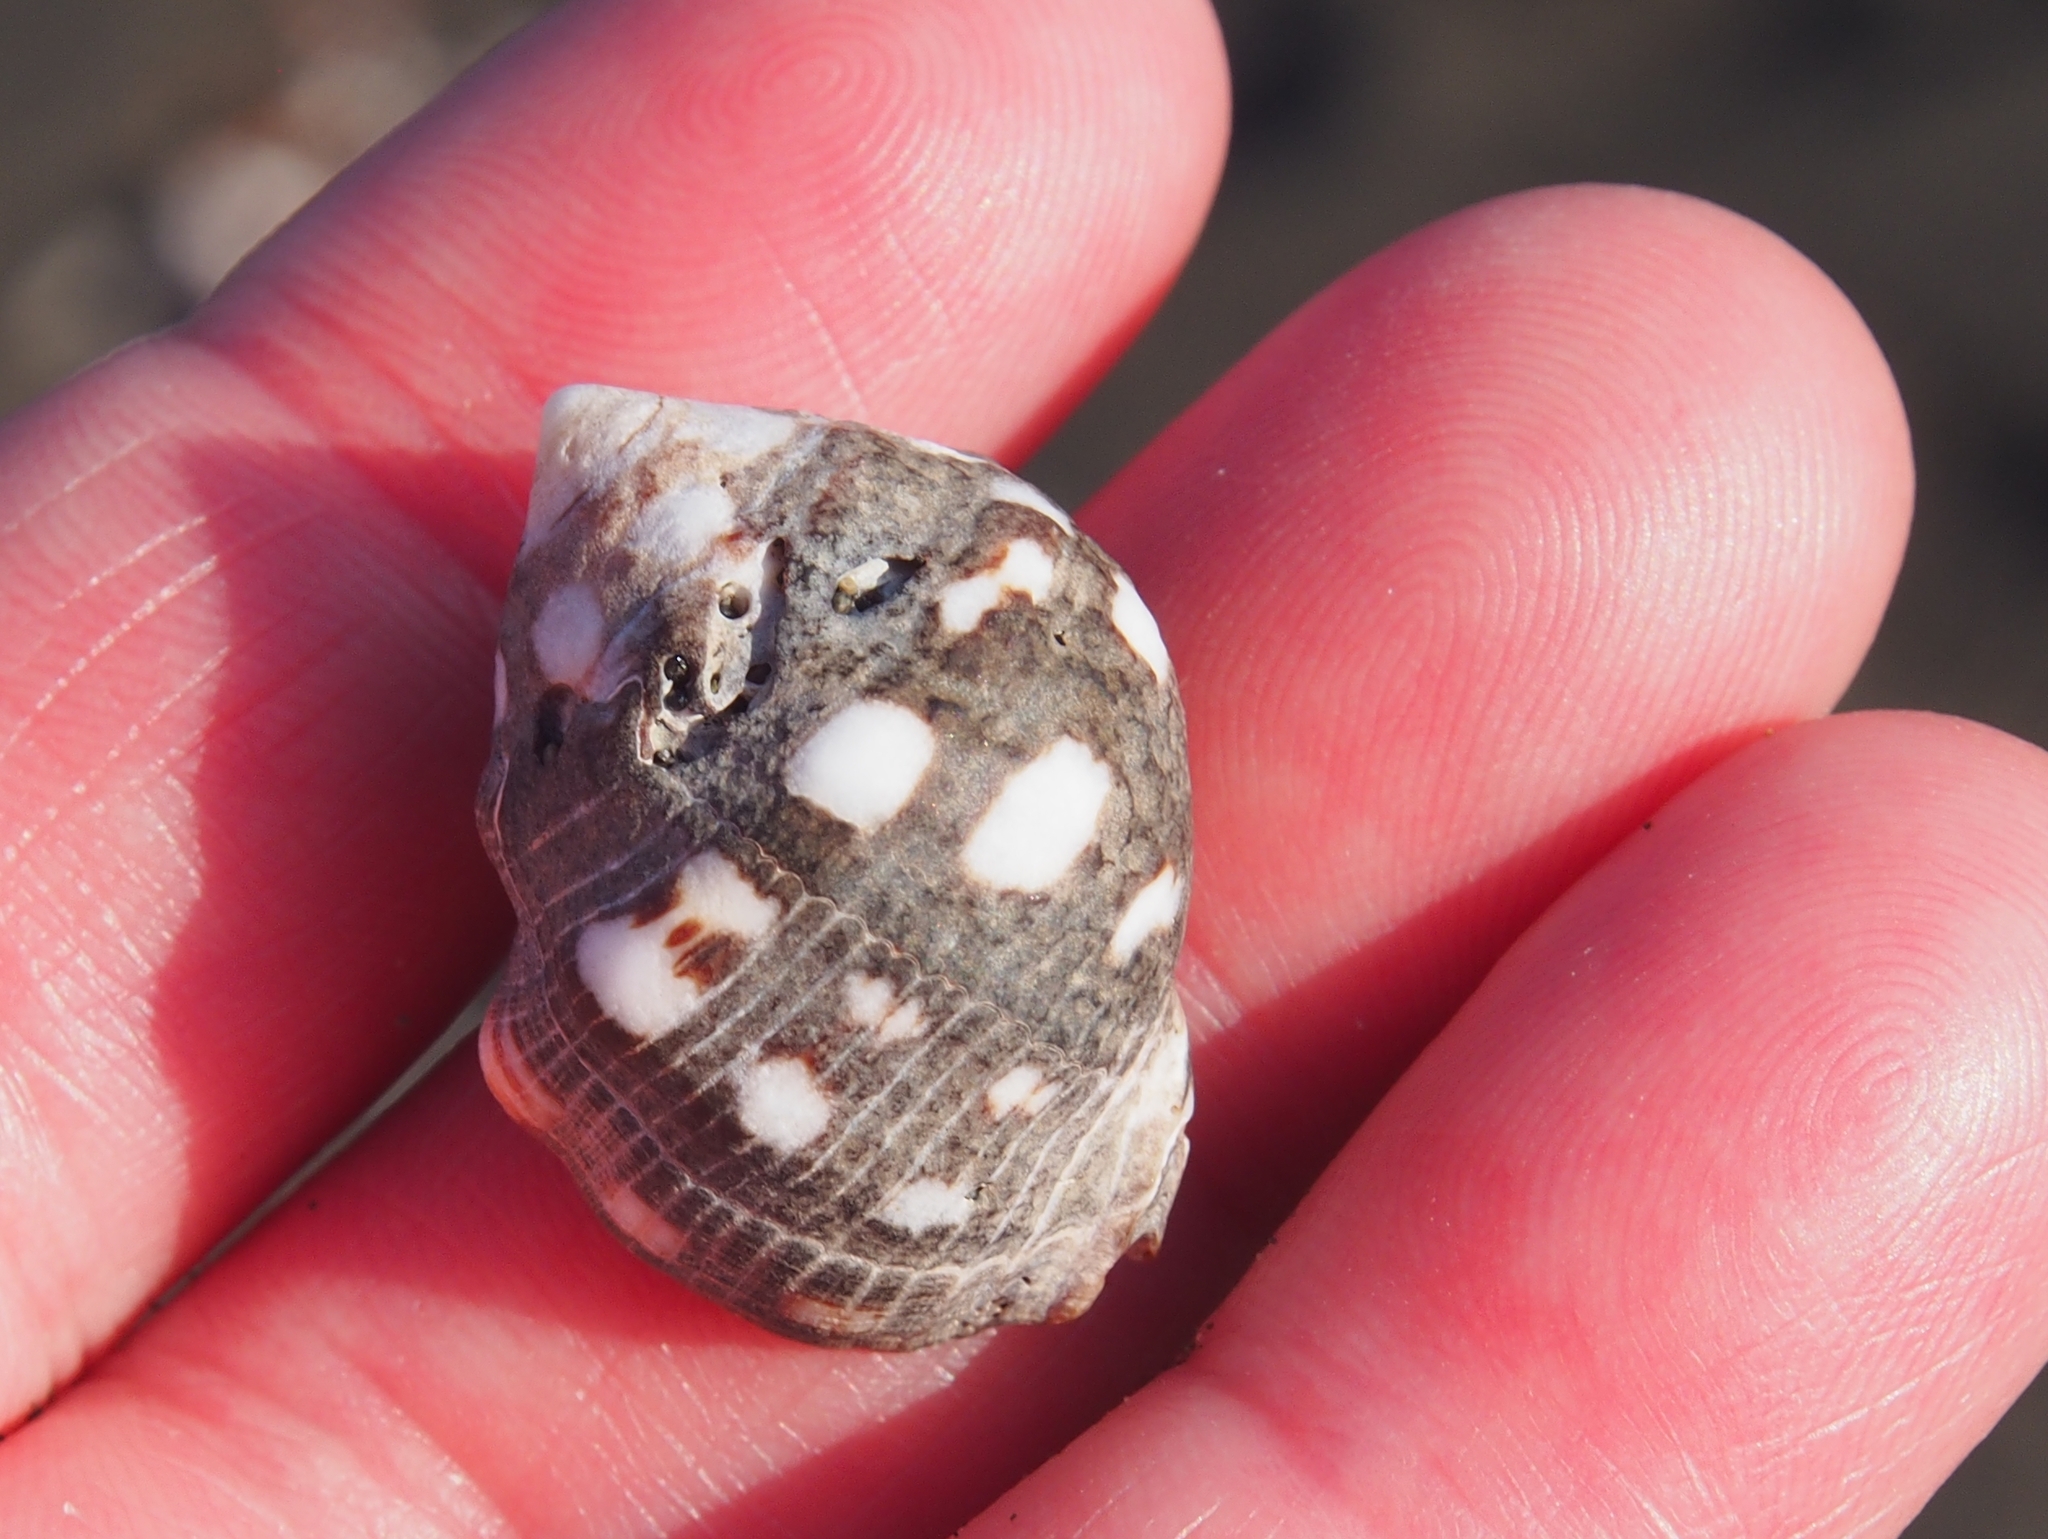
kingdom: Animalia
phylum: Mollusca
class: Gastropoda
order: Neogastropoda
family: Muricidae
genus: Acanthais
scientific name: Acanthais brevidentata
